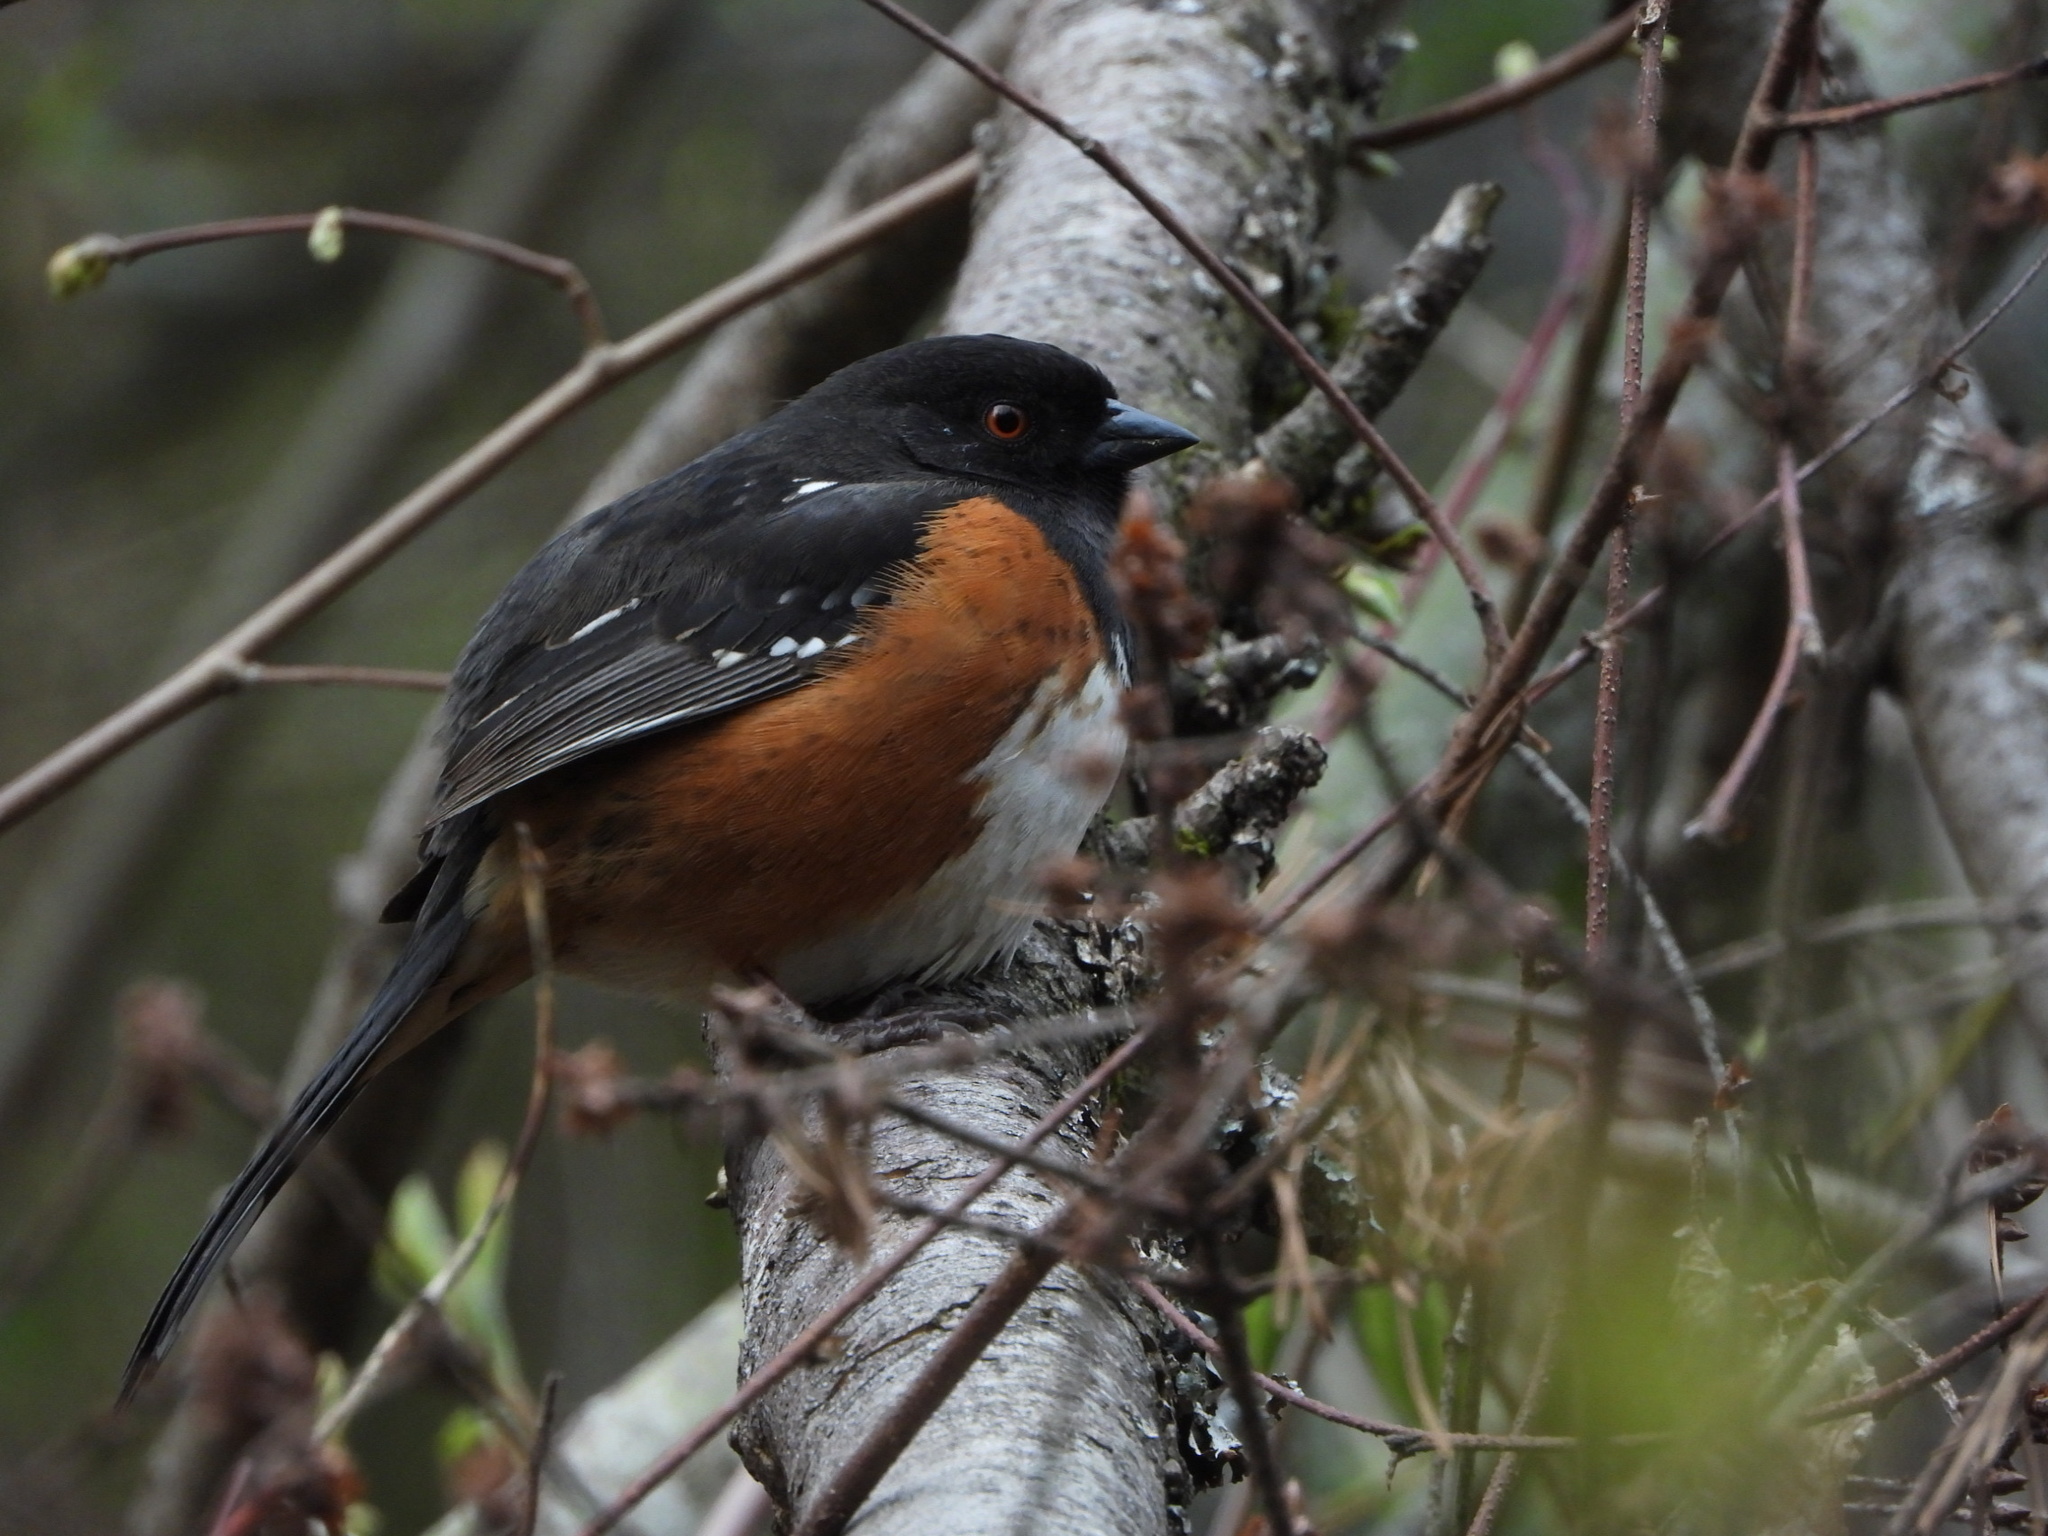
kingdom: Animalia
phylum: Chordata
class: Aves
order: Passeriformes
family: Passerellidae
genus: Pipilo
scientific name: Pipilo maculatus
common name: Spotted towhee
